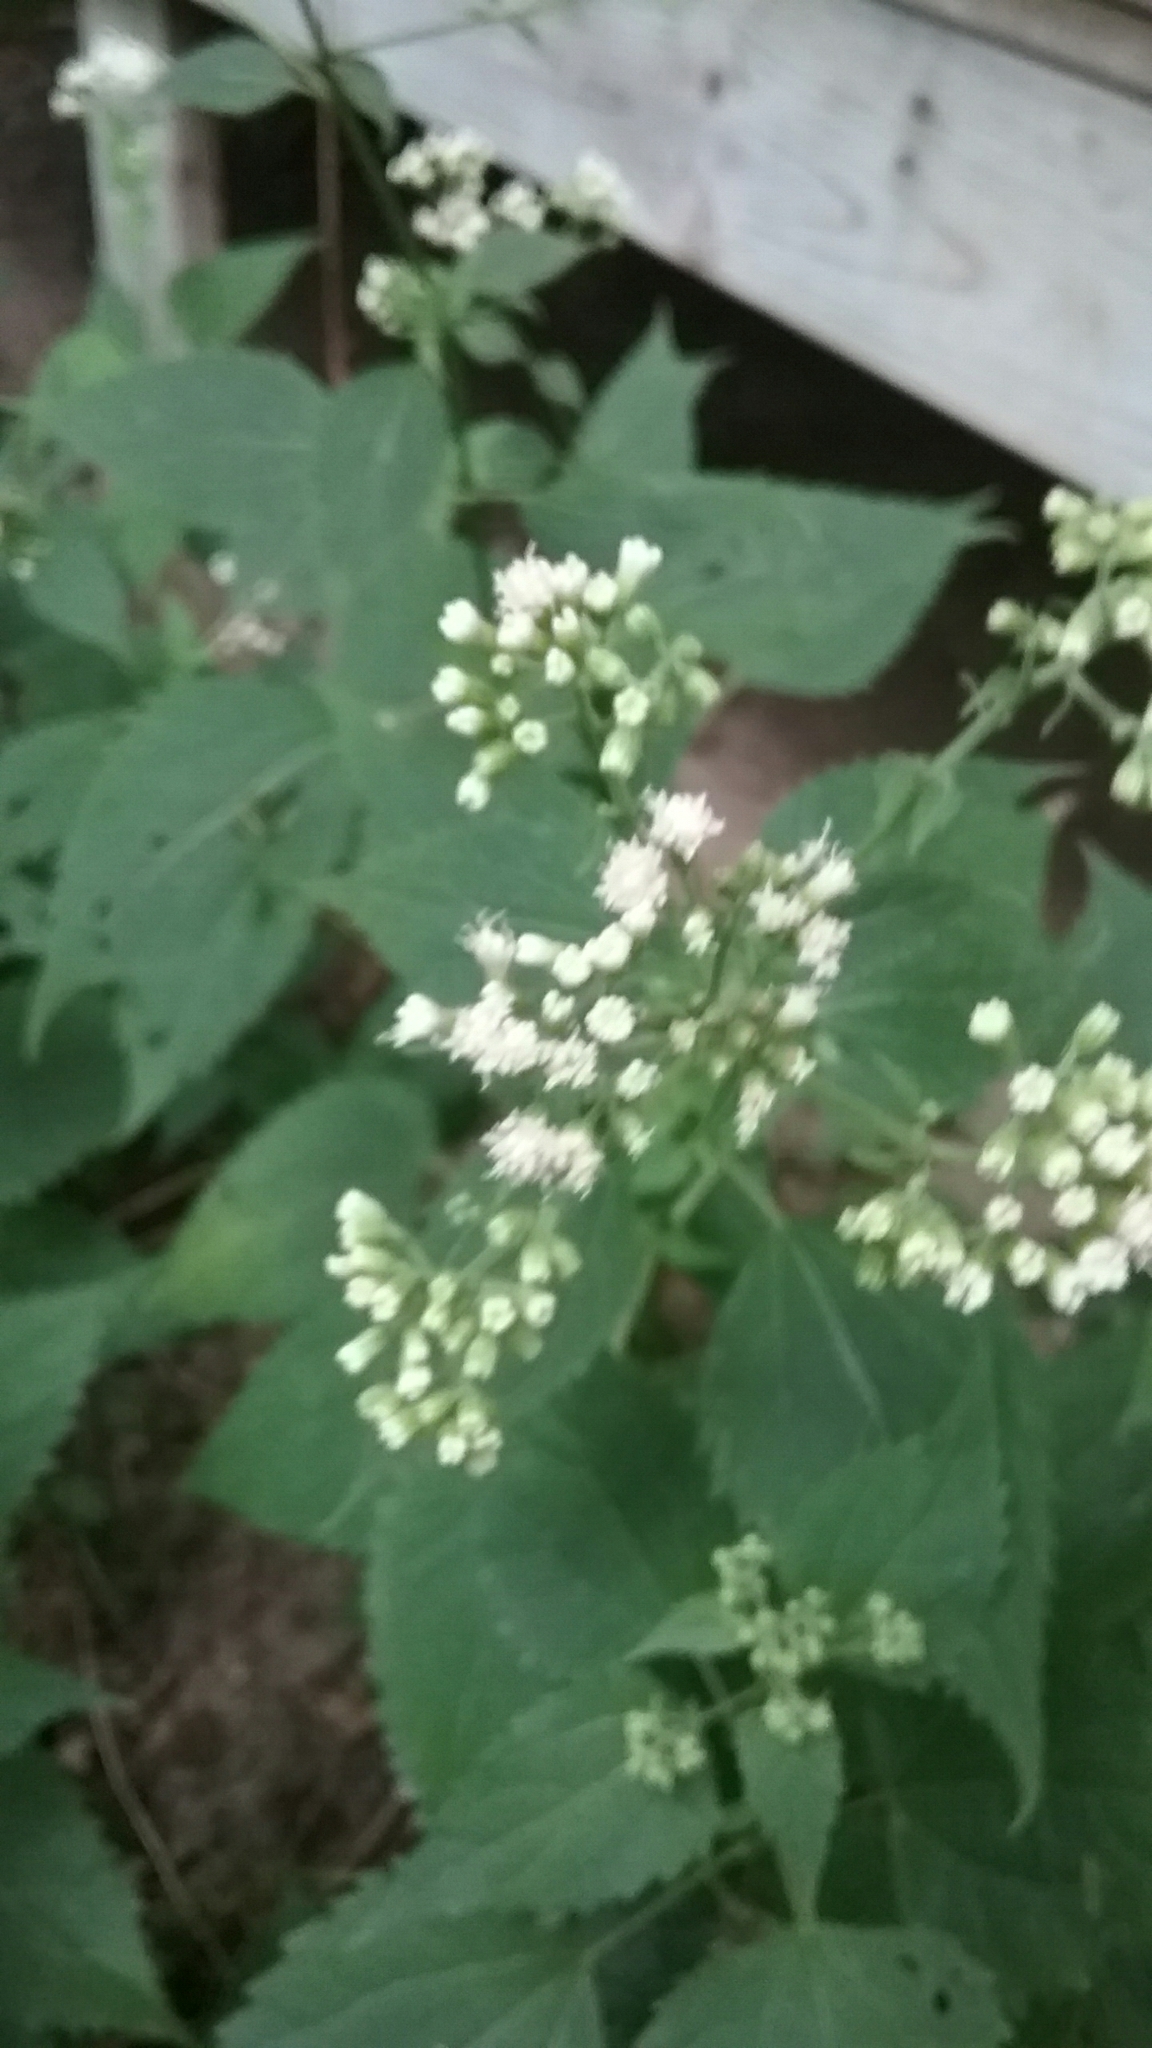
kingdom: Plantae
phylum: Tracheophyta
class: Magnoliopsida
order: Asterales
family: Asteraceae
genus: Ageratina
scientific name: Ageratina altissima
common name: White snakeroot
